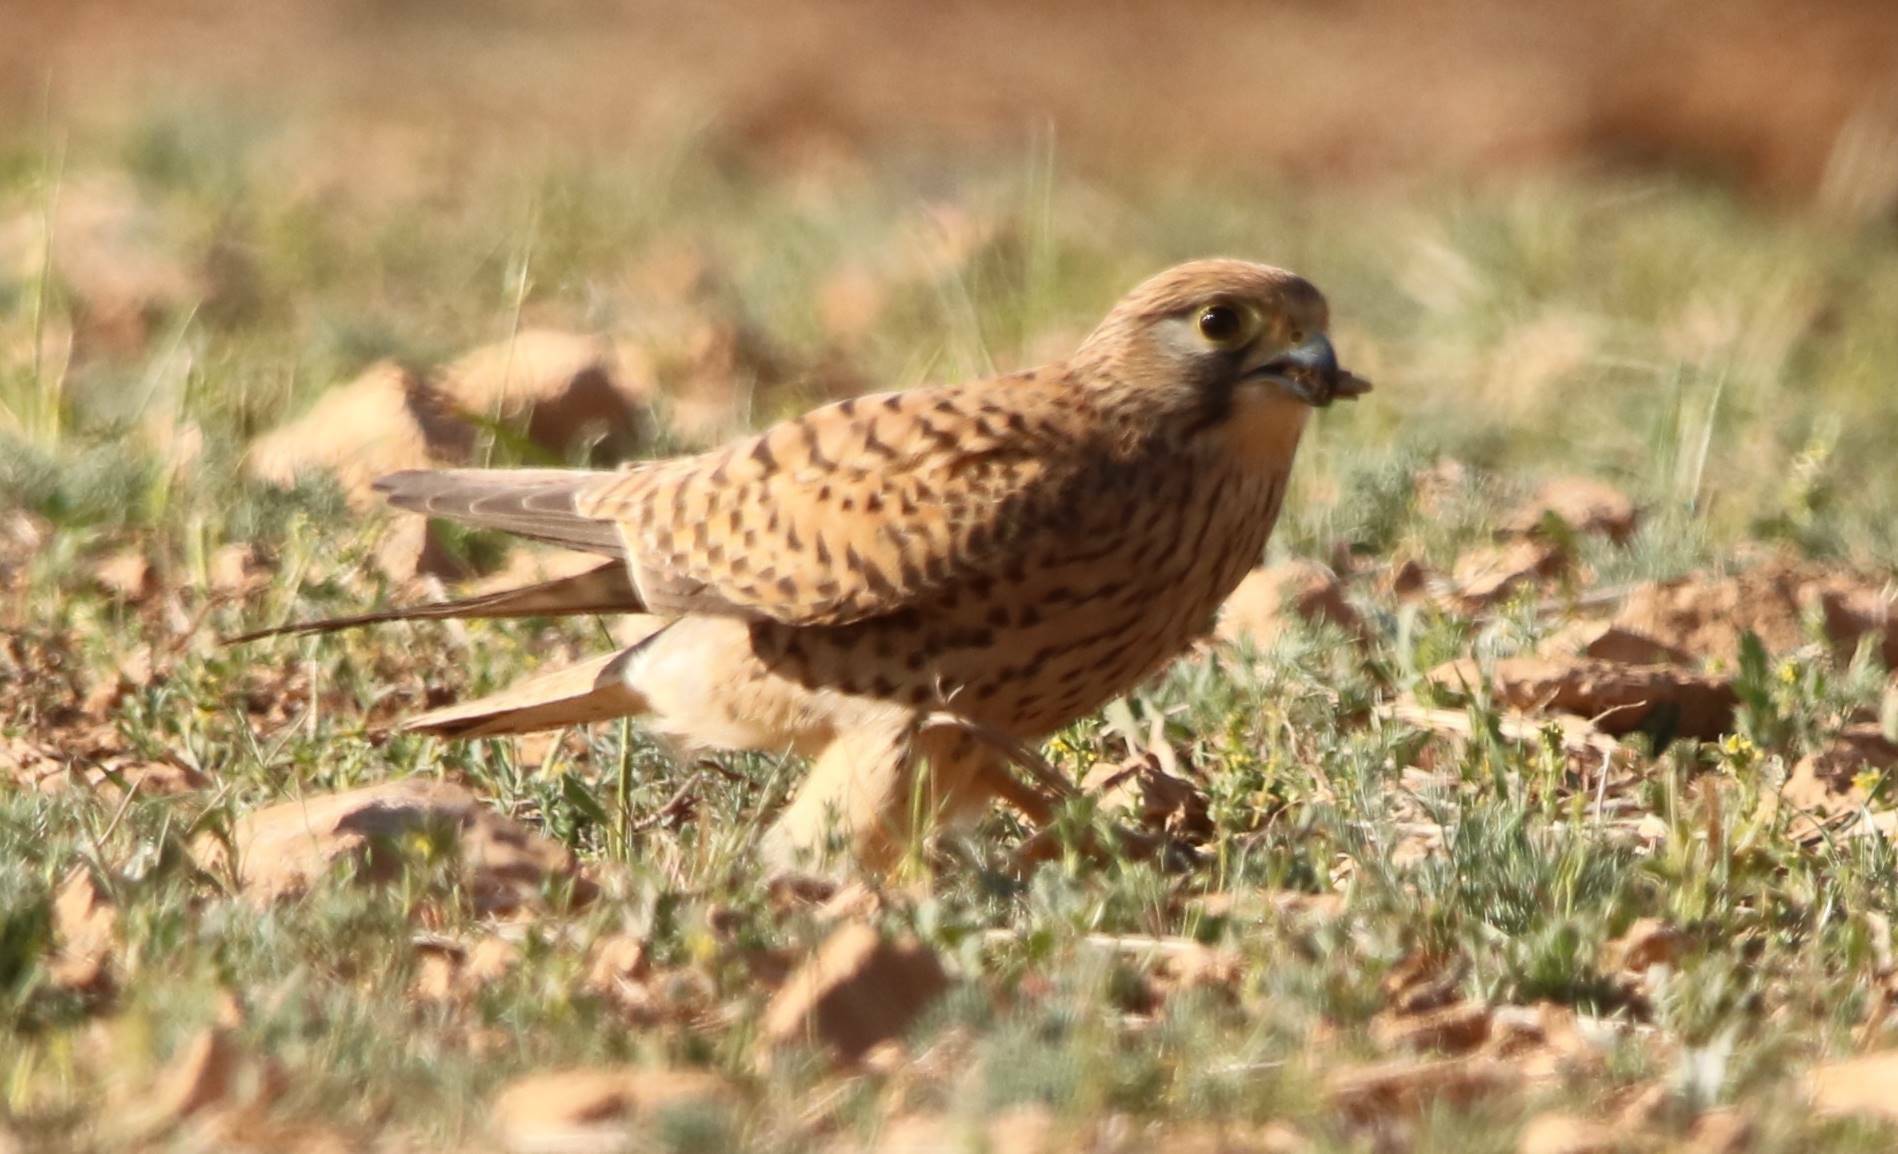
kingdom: Animalia
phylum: Chordata
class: Aves
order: Falconiformes
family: Falconidae
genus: Falco
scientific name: Falco tinnunculus
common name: Common kestrel
